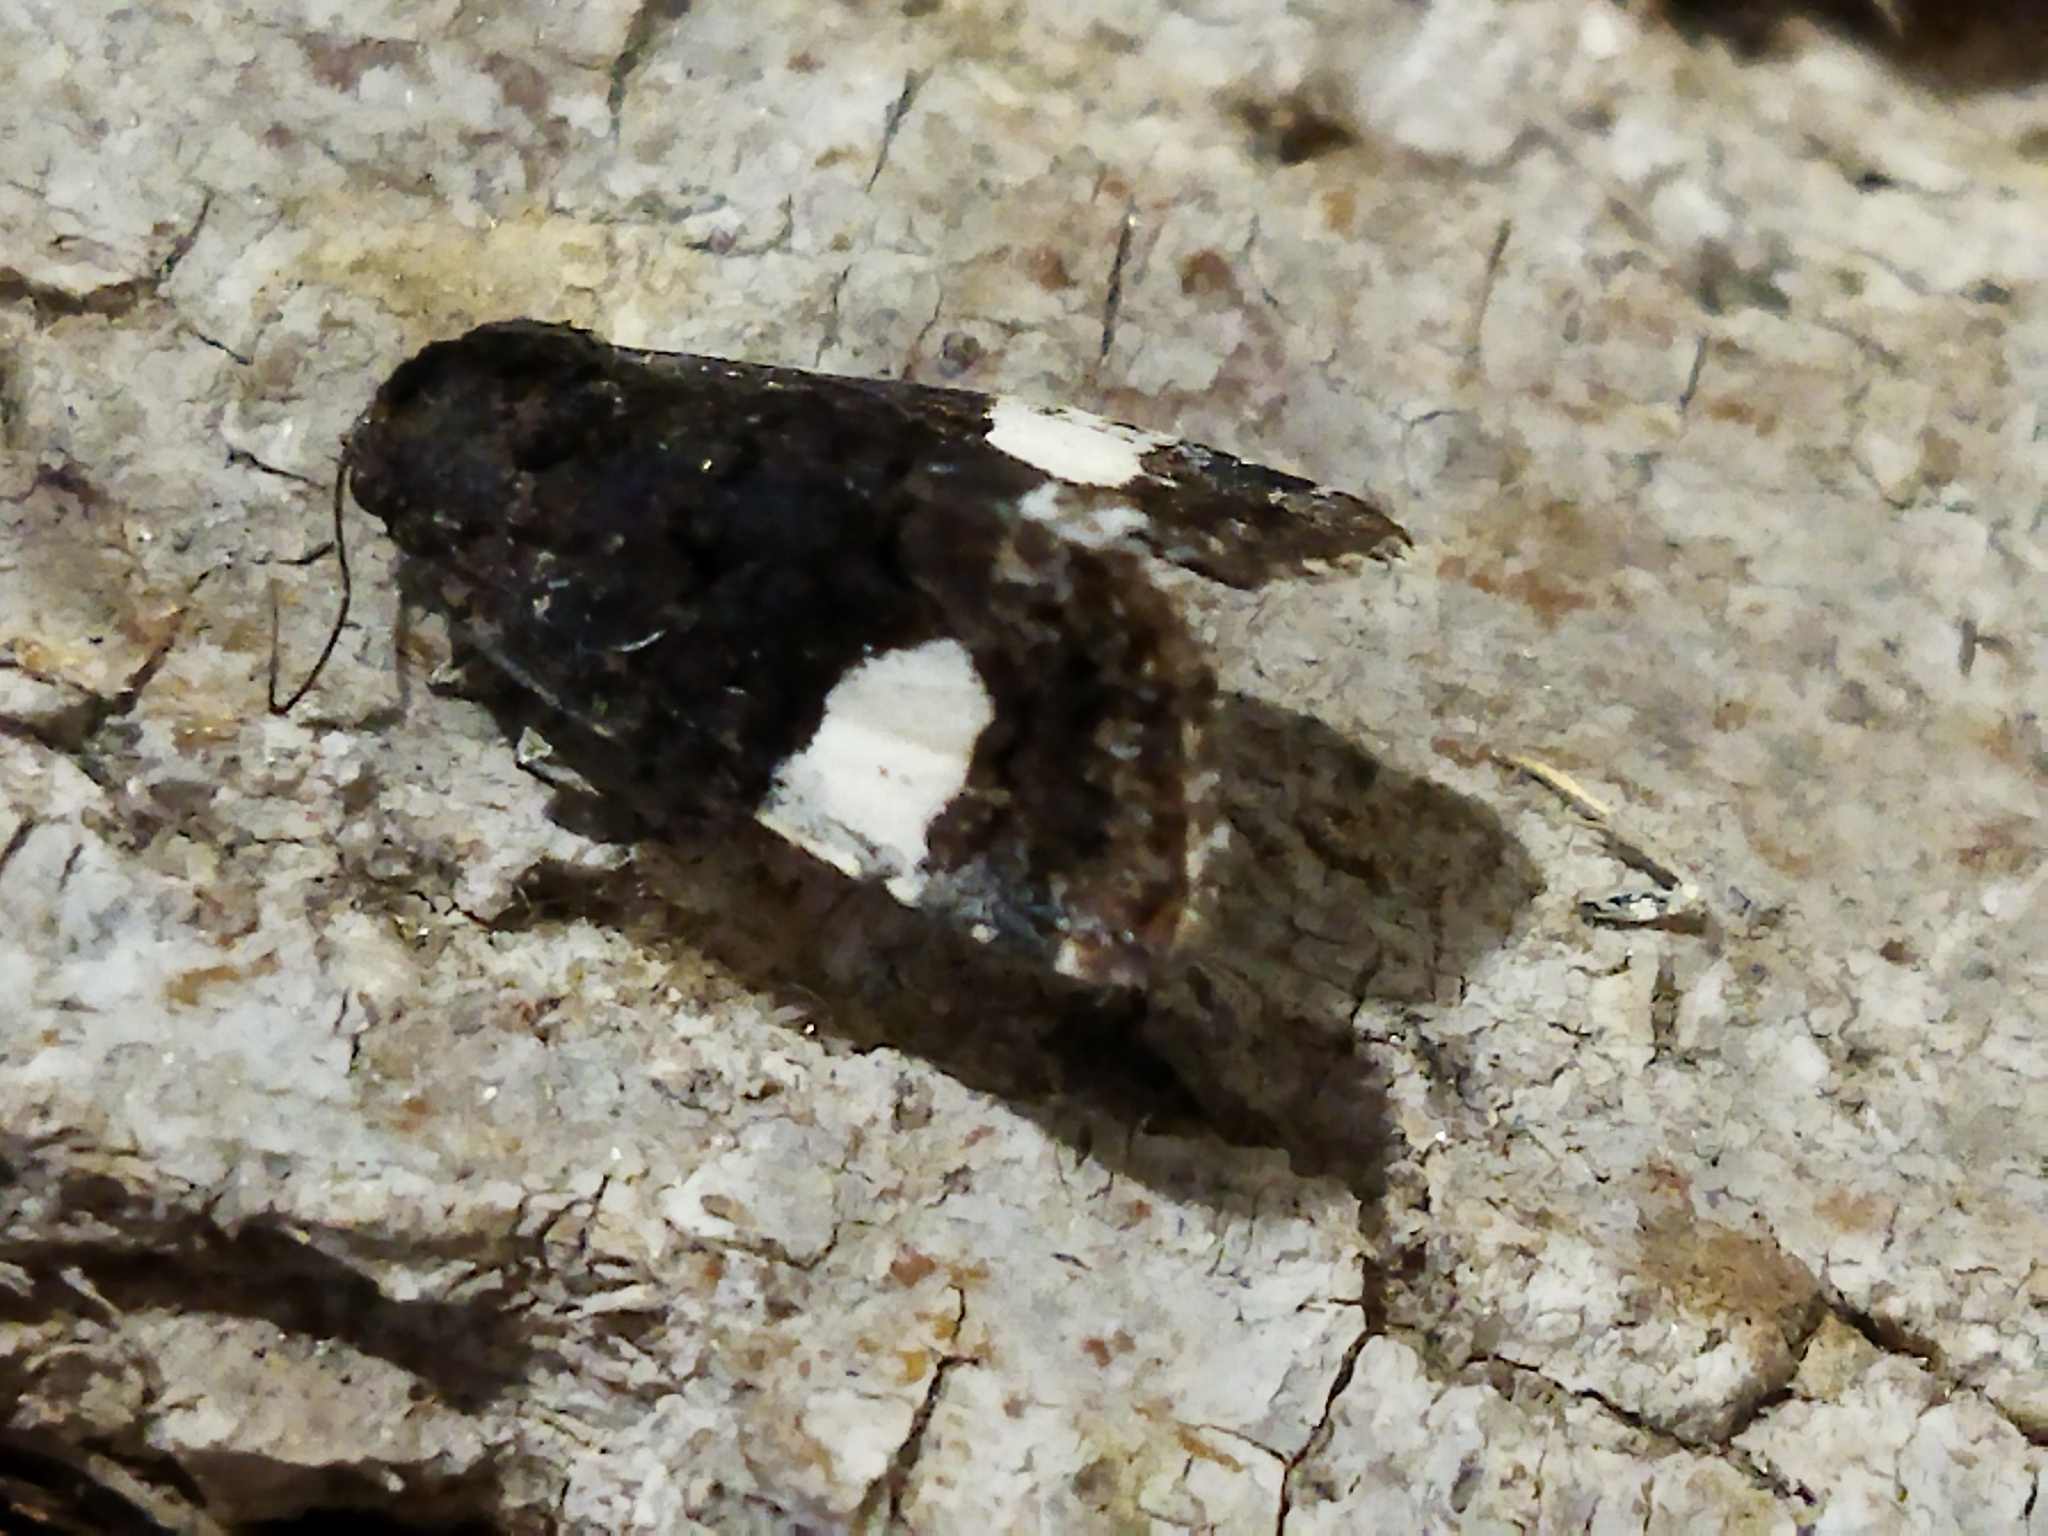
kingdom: Animalia
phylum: Arthropoda
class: Insecta
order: Lepidoptera
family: Erebidae
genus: Tyta
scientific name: Tyta luctuosa
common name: Four-spotted
